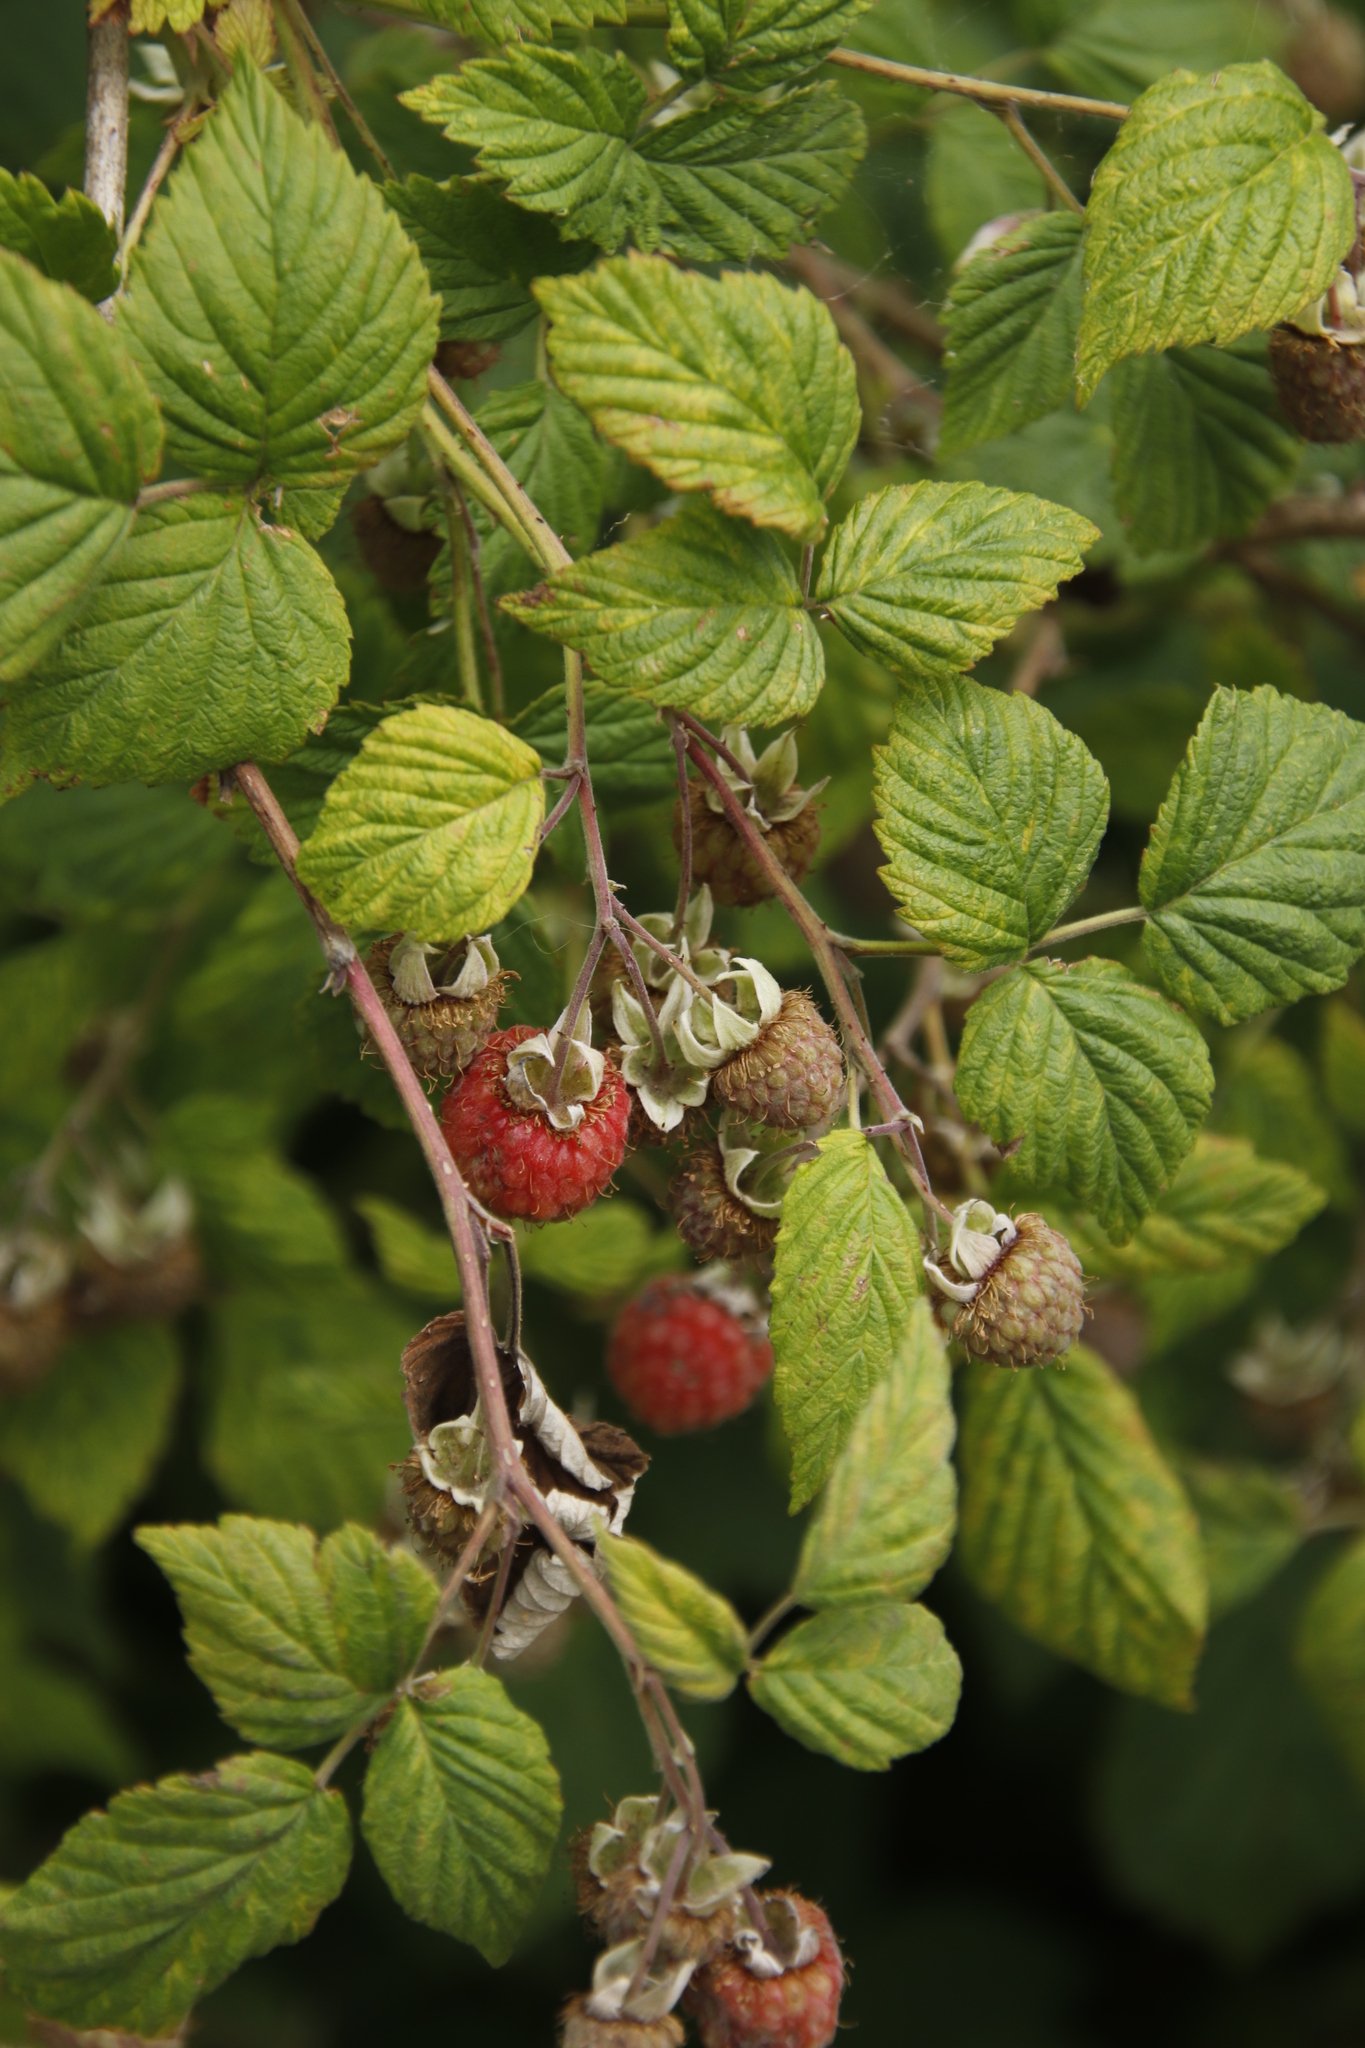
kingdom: Plantae
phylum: Tracheophyta
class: Magnoliopsida
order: Rosales
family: Rosaceae
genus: Rubus
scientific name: Rubus idaeus
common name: Raspberry
